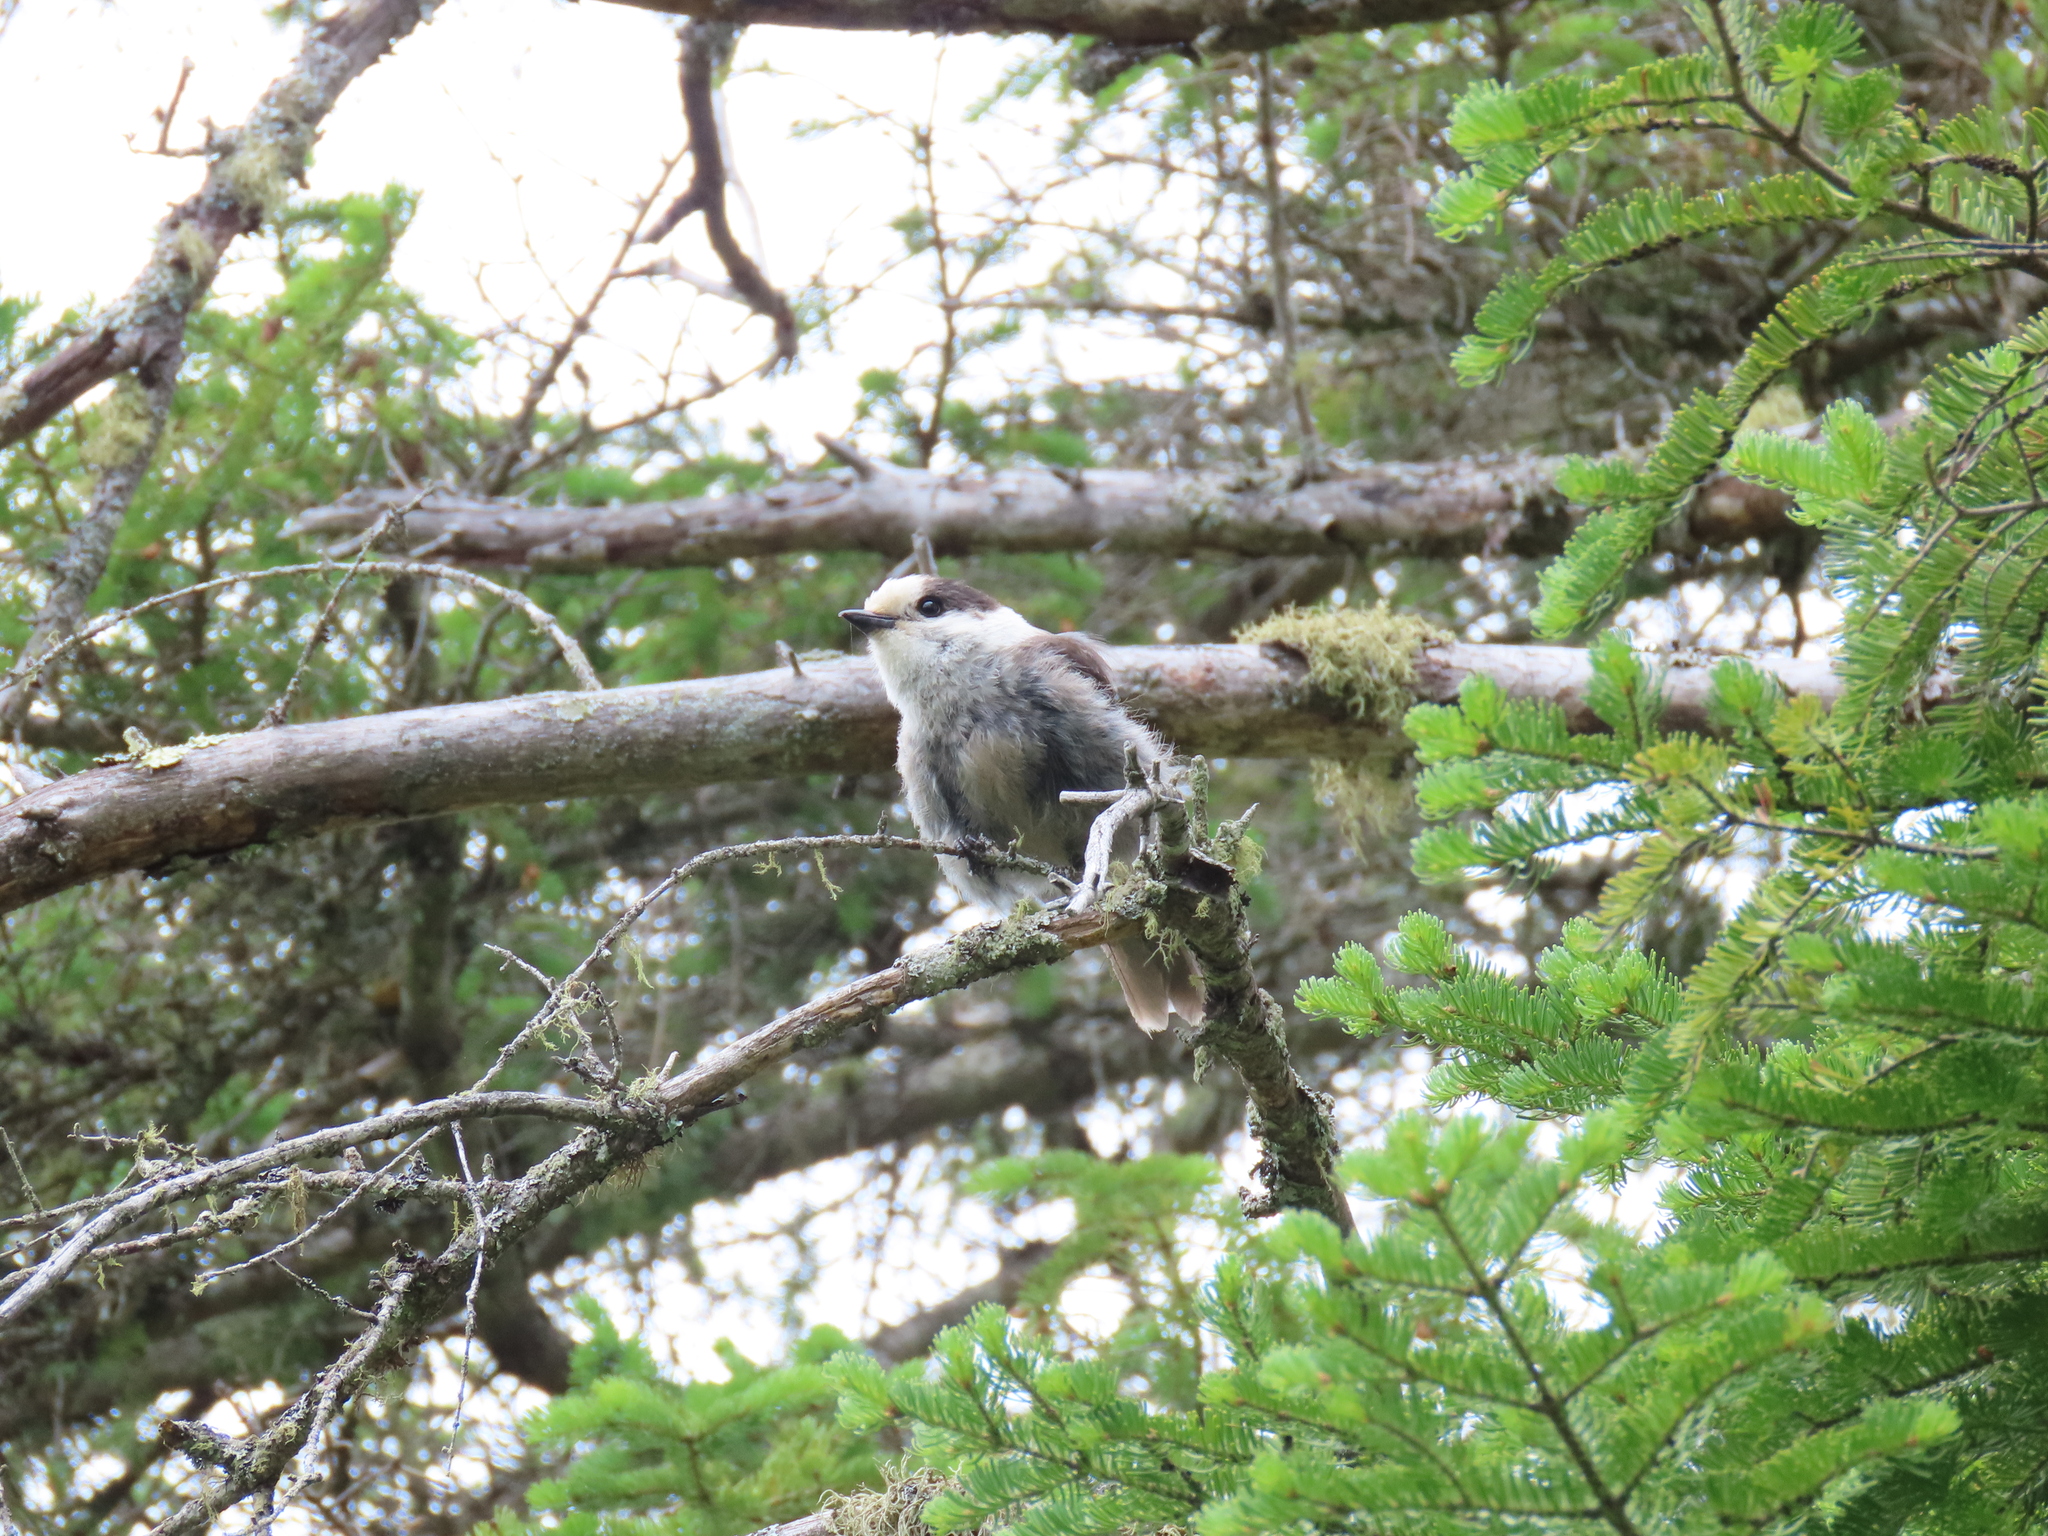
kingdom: Animalia
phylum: Chordata
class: Aves
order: Passeriformes
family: Corvidae
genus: Perisoreus
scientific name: Perisoreus canadensis
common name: Gray jay
